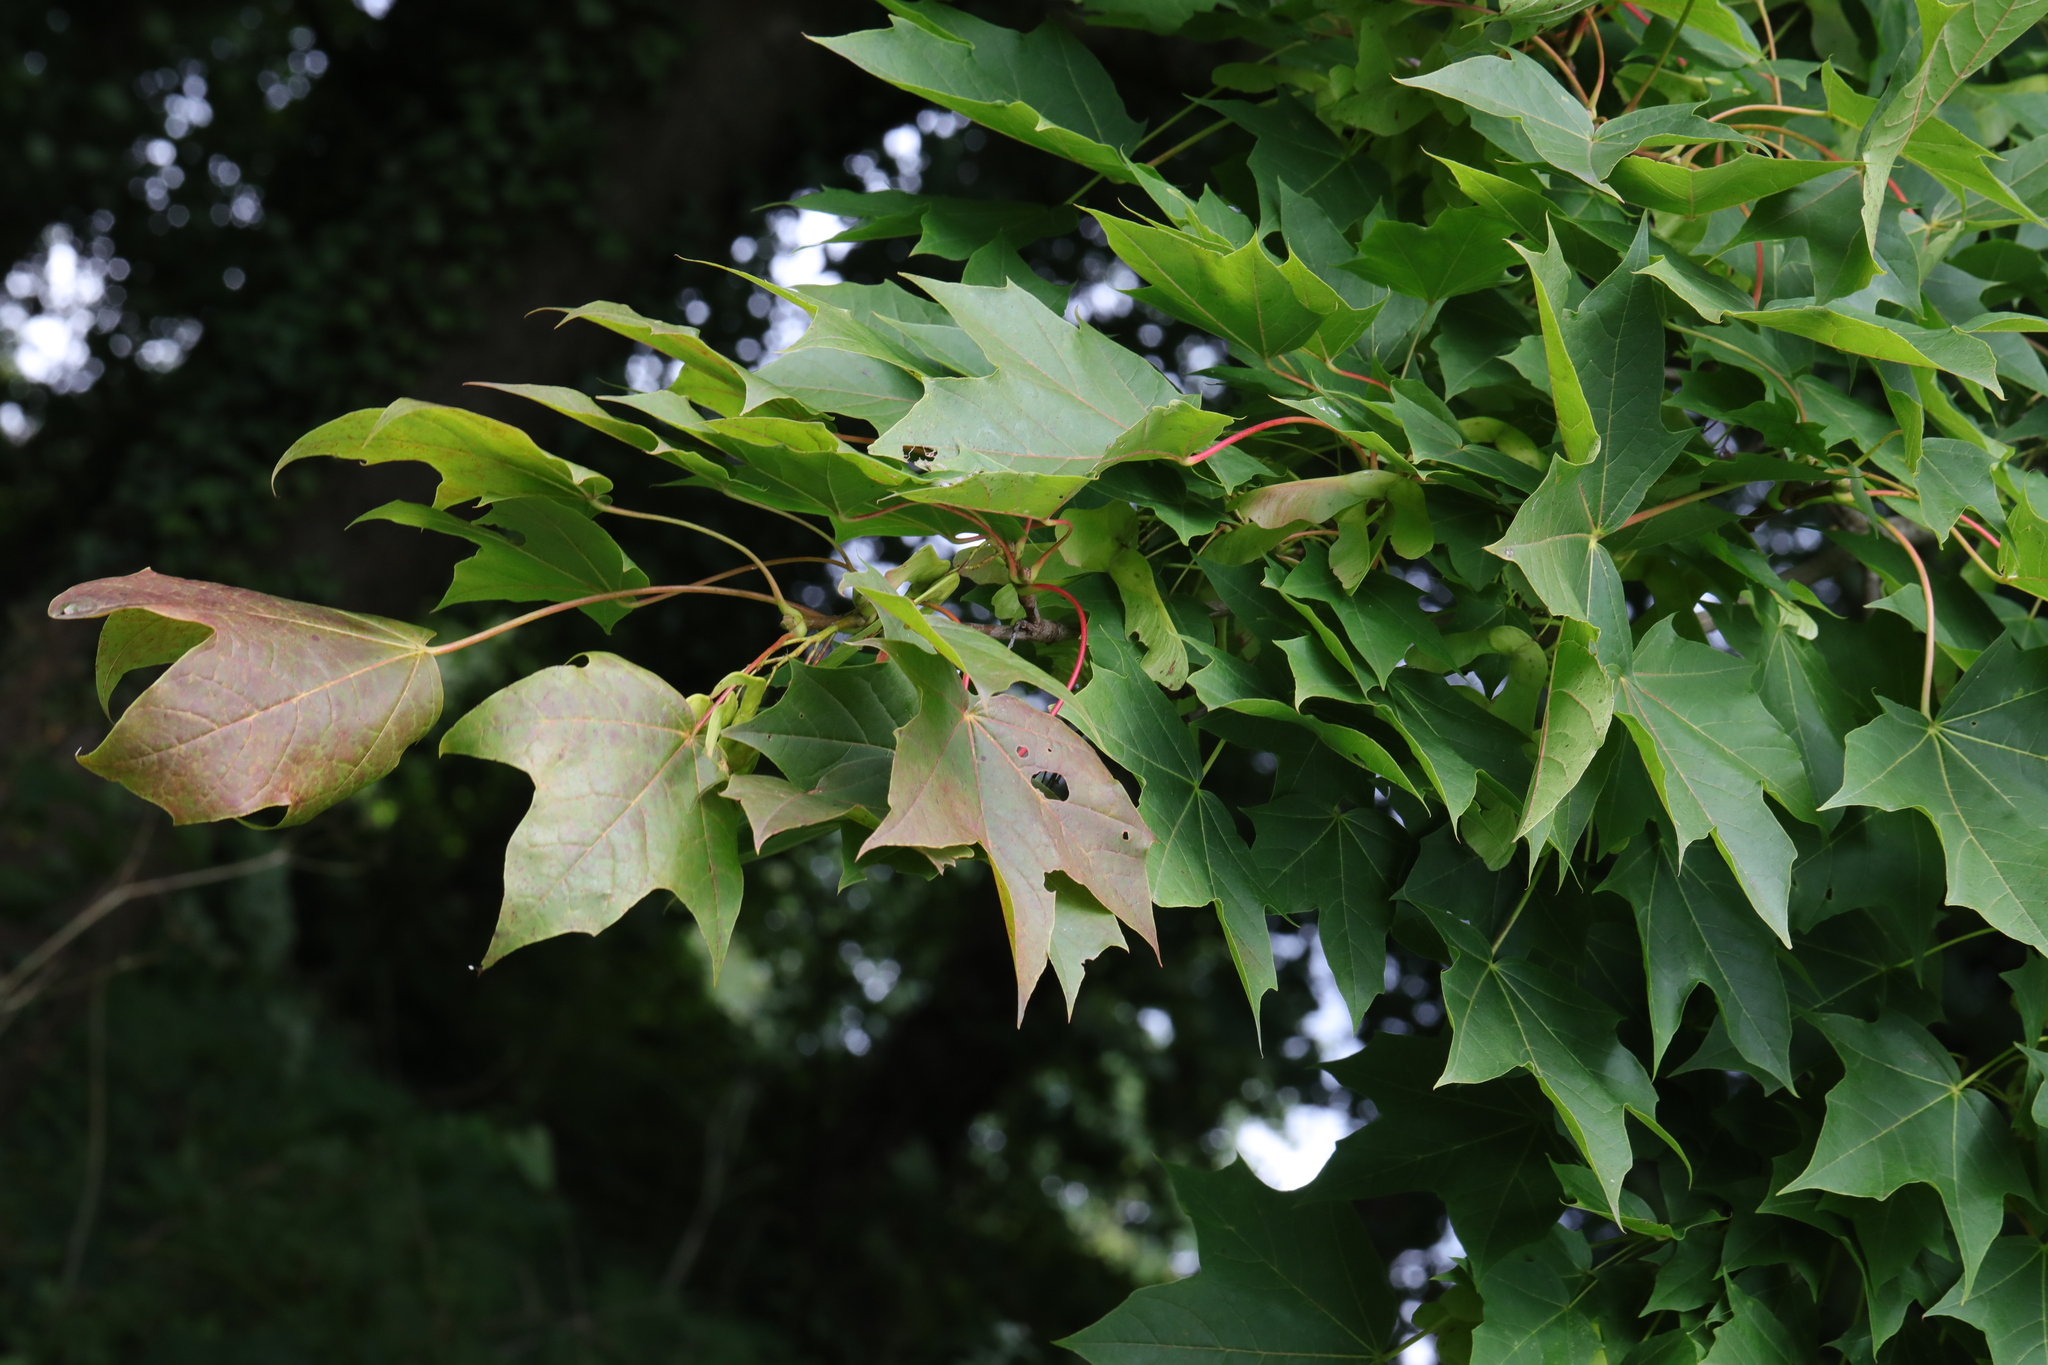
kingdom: Plantae
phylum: Tracheophyta
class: Magnoliopsida
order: Sapindales
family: Sapindaceae
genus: Acer
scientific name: Acer platanoides
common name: Norway maple
